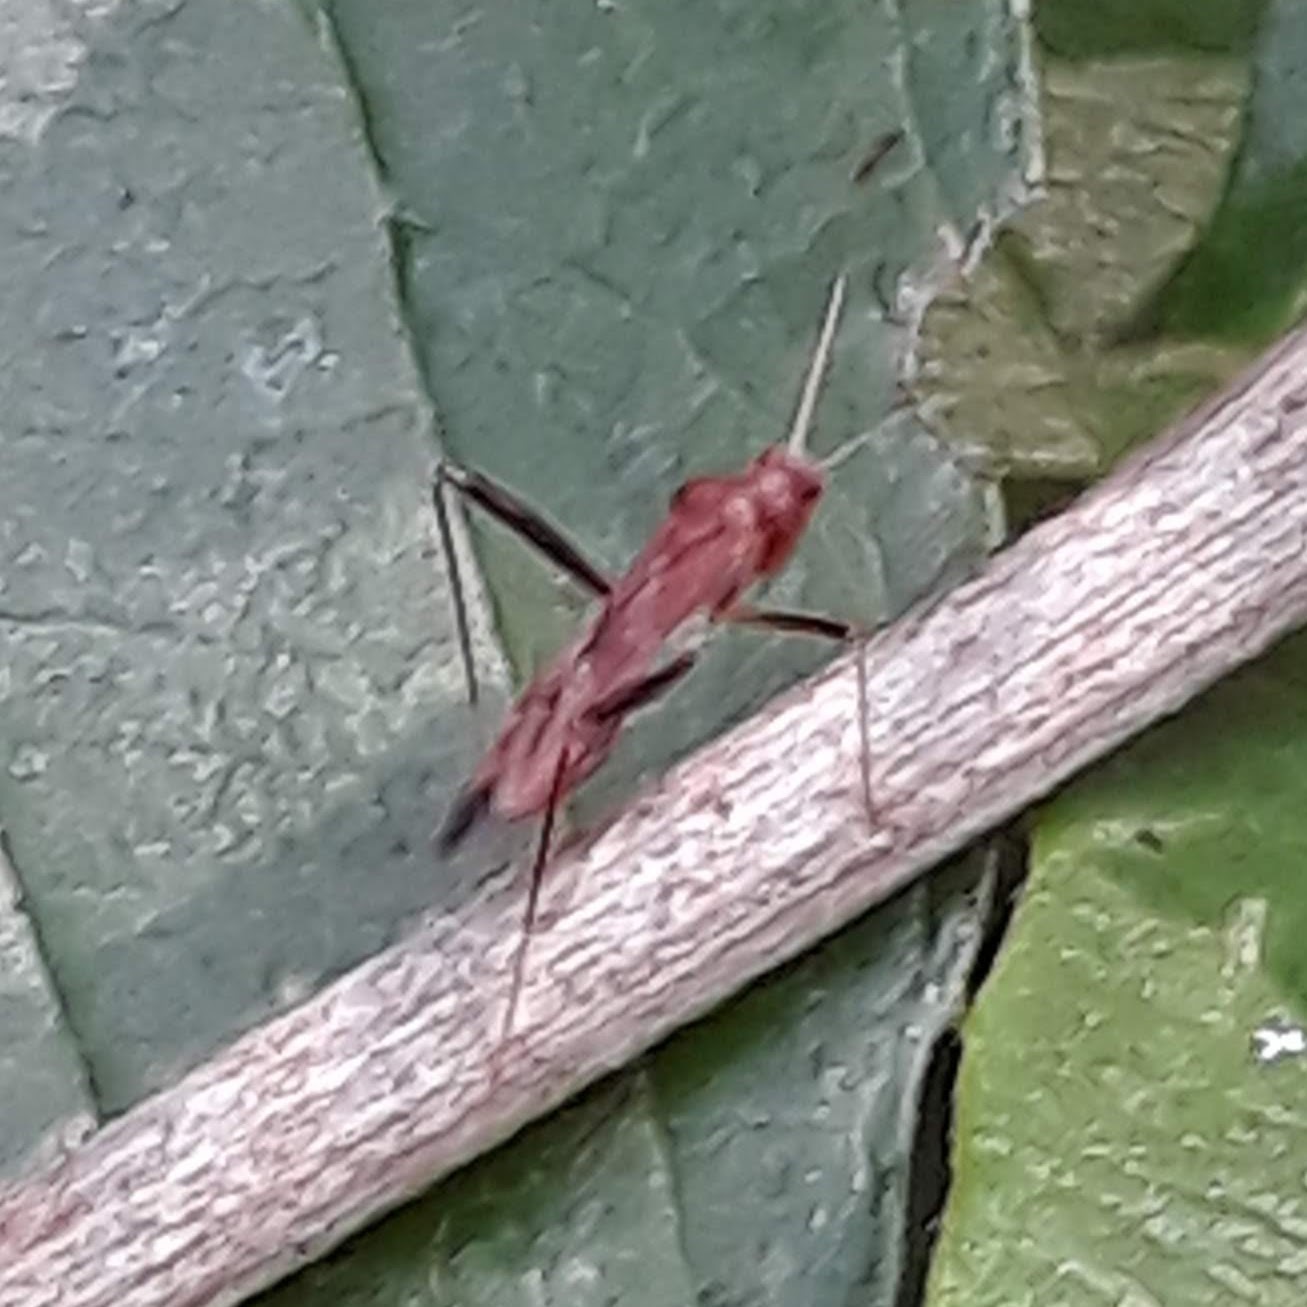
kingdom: Animalia
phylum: Arthropoda
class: Insecta
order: Hemiptera
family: Miridae
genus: Paraxenetus
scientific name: Paraxenetus guttulatus
